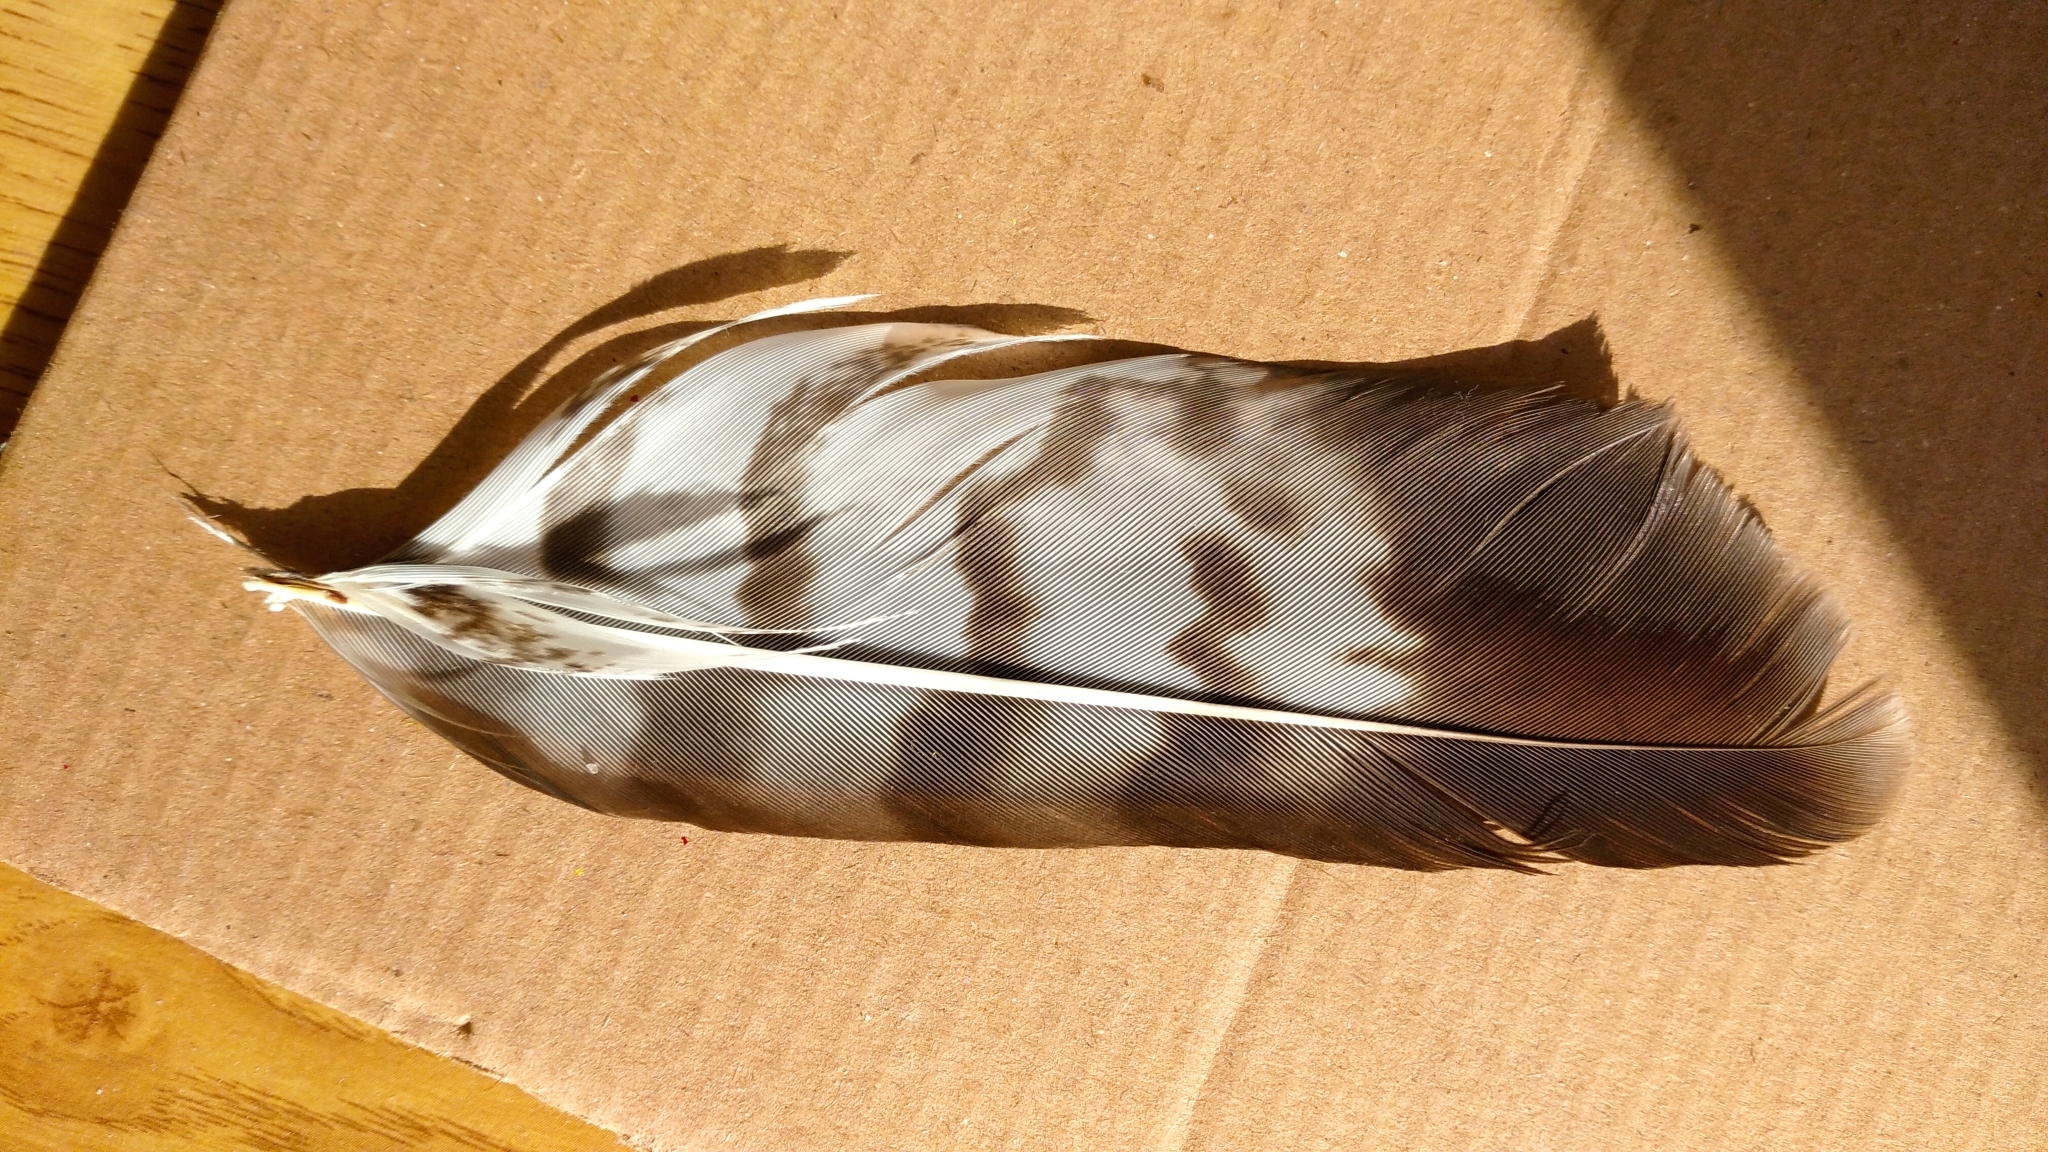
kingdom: Animalia
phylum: Chordata
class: Aves
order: Accipitriformes
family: Accipitridae
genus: Buteo
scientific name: Buteo buteo
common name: Common buzzard
